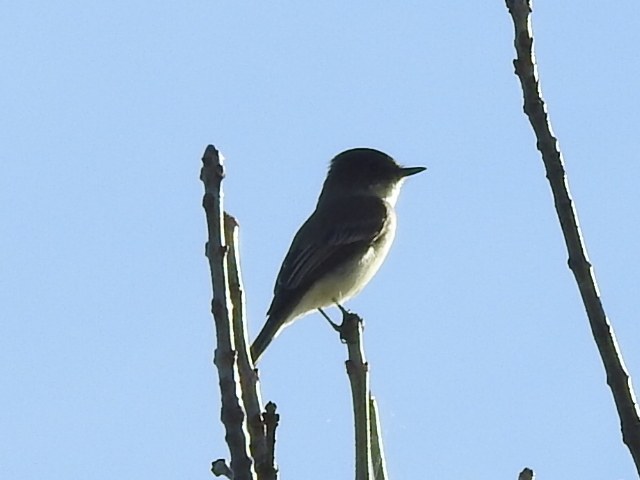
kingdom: Animalia
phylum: Chordata
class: Aves
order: Passeriformes
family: Tyrannidae
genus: Sayornis
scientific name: Sayornis phoebe
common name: Eastern phoebe
